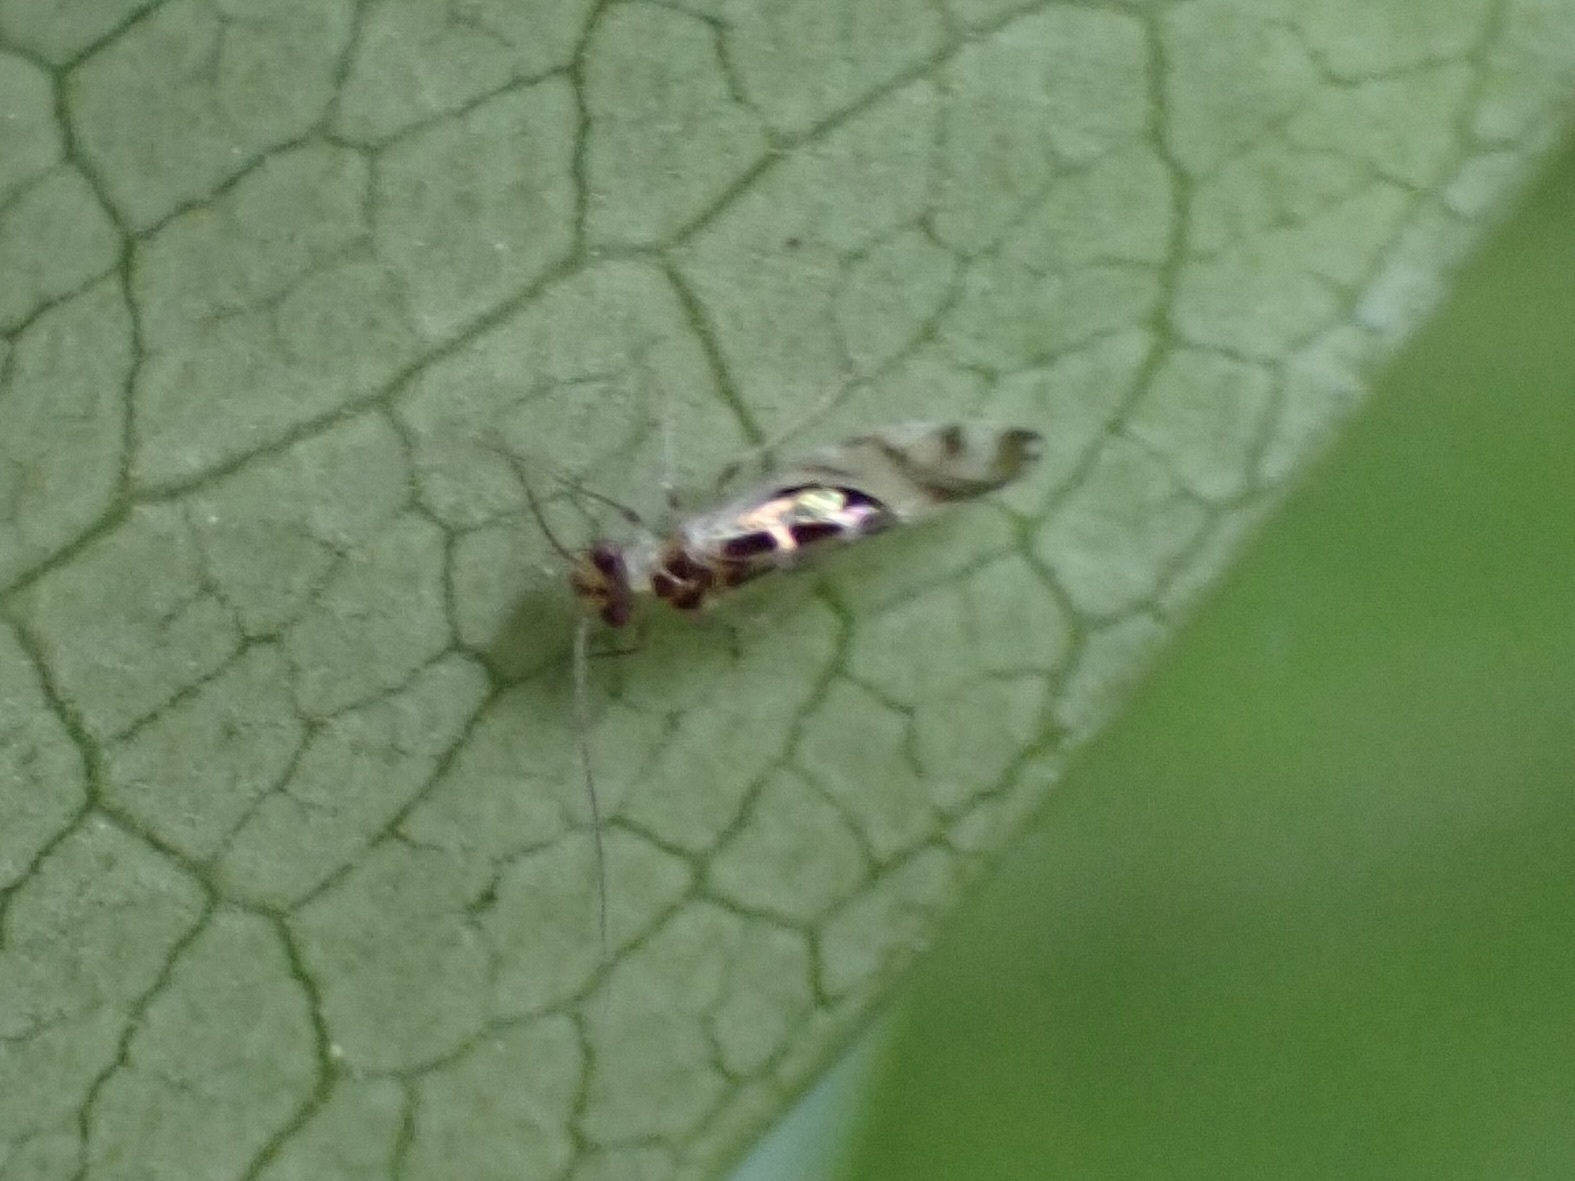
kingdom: Animalia
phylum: Arthropoda
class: Insecta
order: Psocodea
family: Stenopsocidae
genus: Graphopsocus
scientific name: Graphopsocus cruciatus
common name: Lizard bark louse
